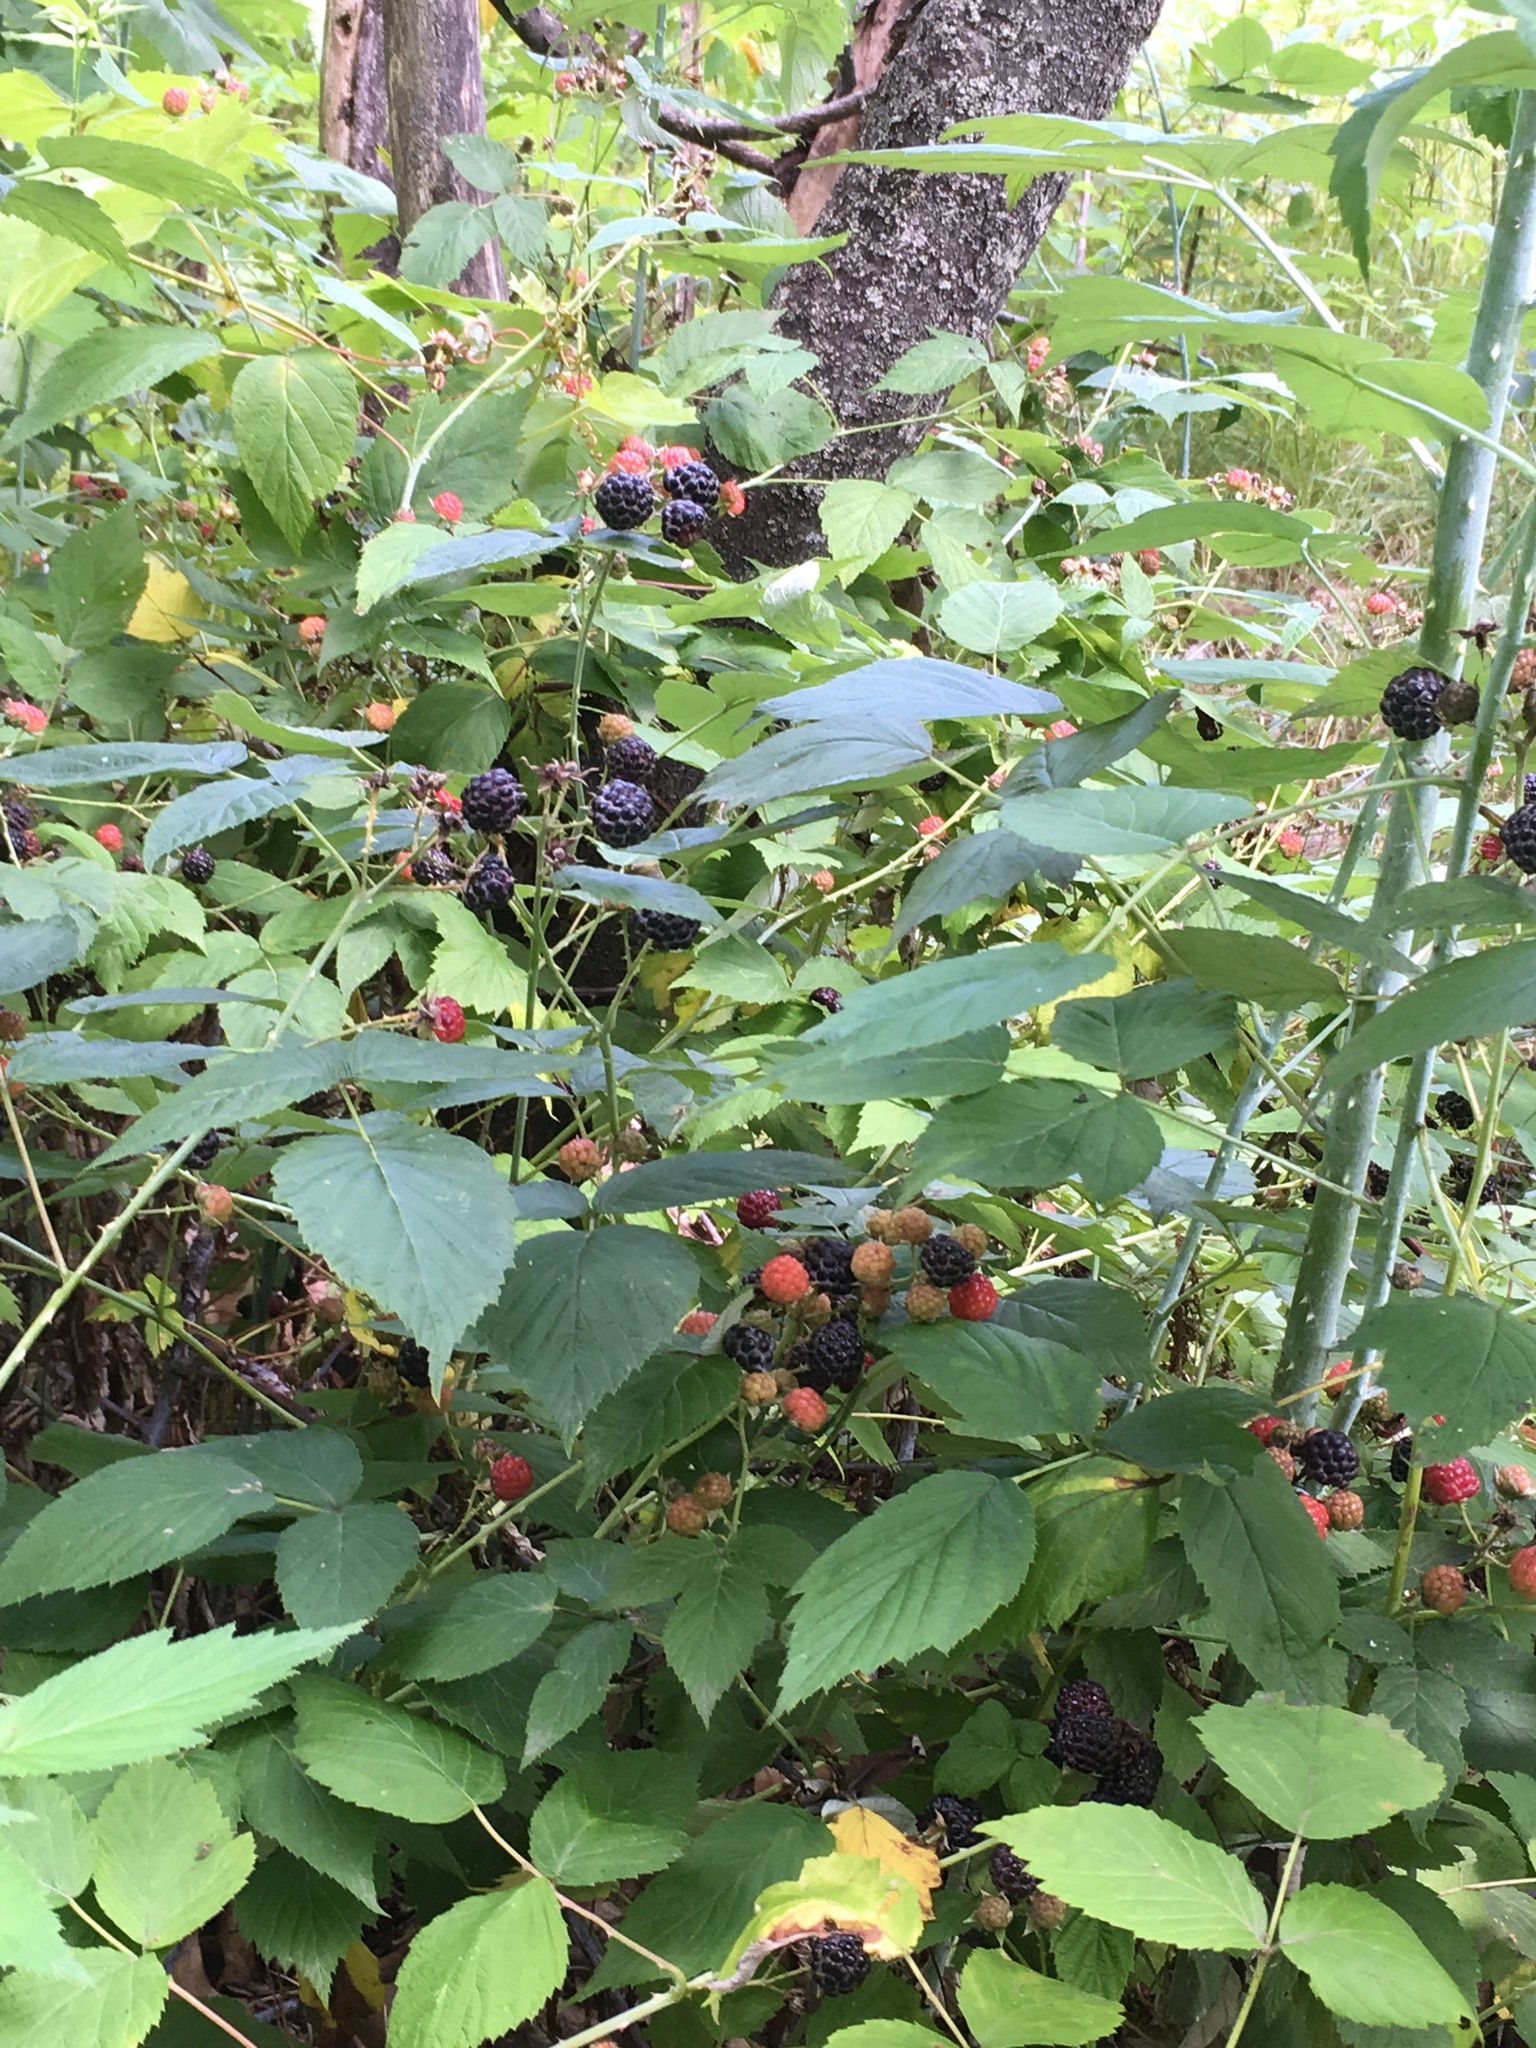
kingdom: Plantae
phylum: Tracheophyta
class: Magnoliopsida
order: Rosales
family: Rosaceae
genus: Rubus
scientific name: Rubus occidentalis
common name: Black raspberry
